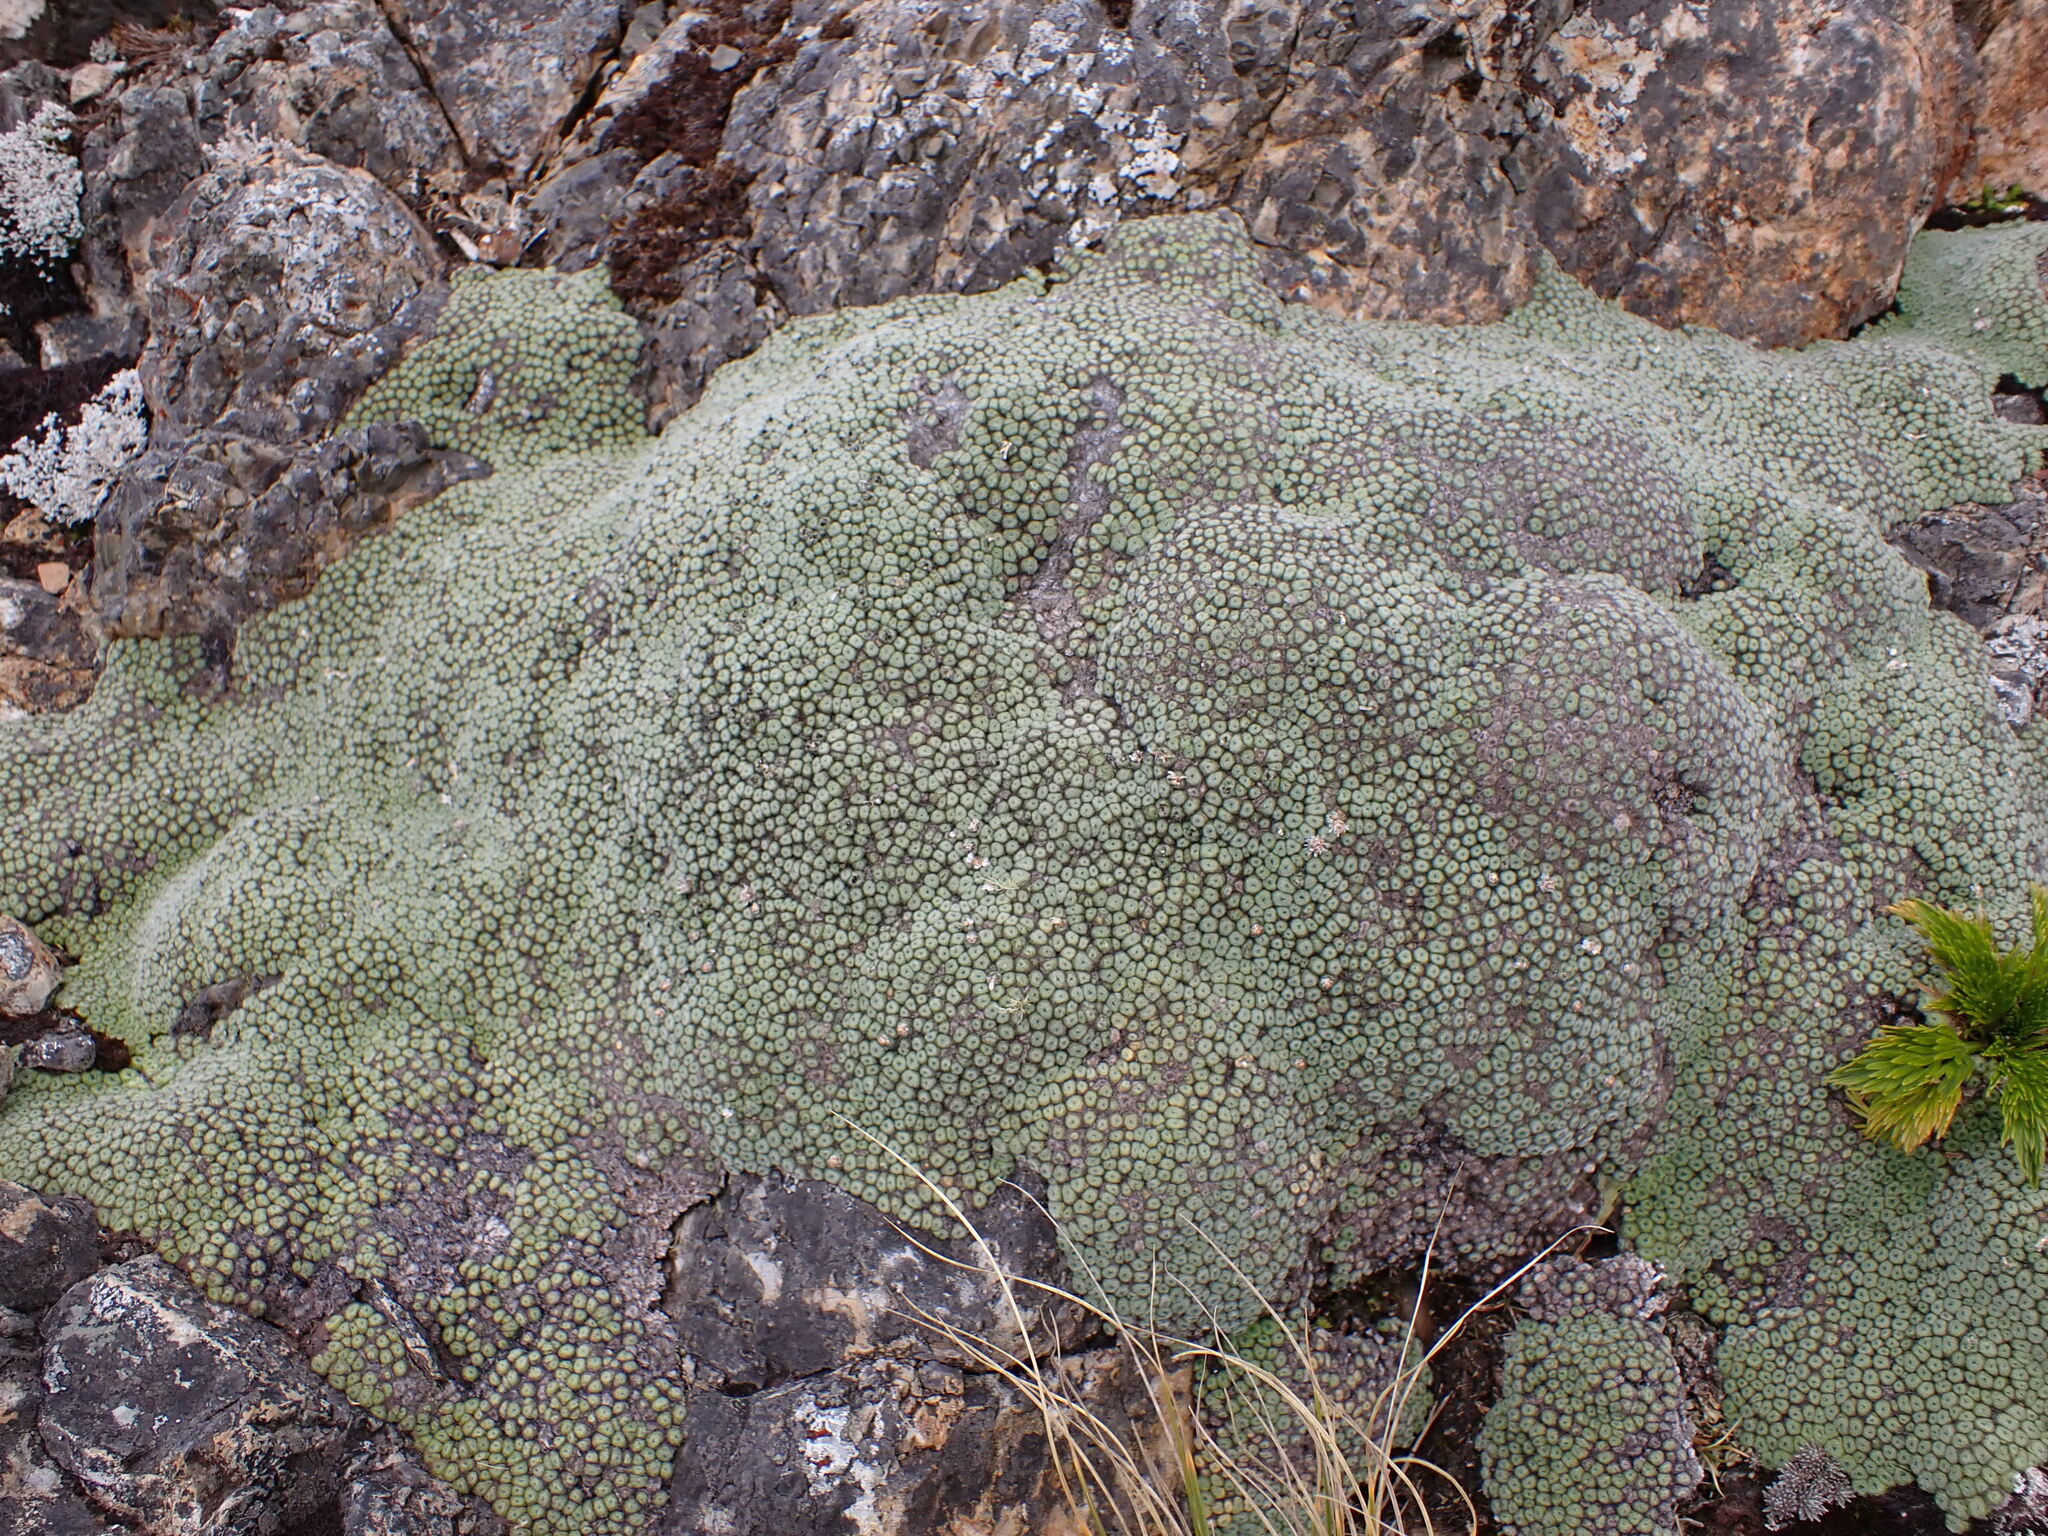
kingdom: Plantae
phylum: Tracheophyta
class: Magnoliopsida
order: Asterales
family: Asteraceae
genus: Raoulia
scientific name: Raoulia rubra
